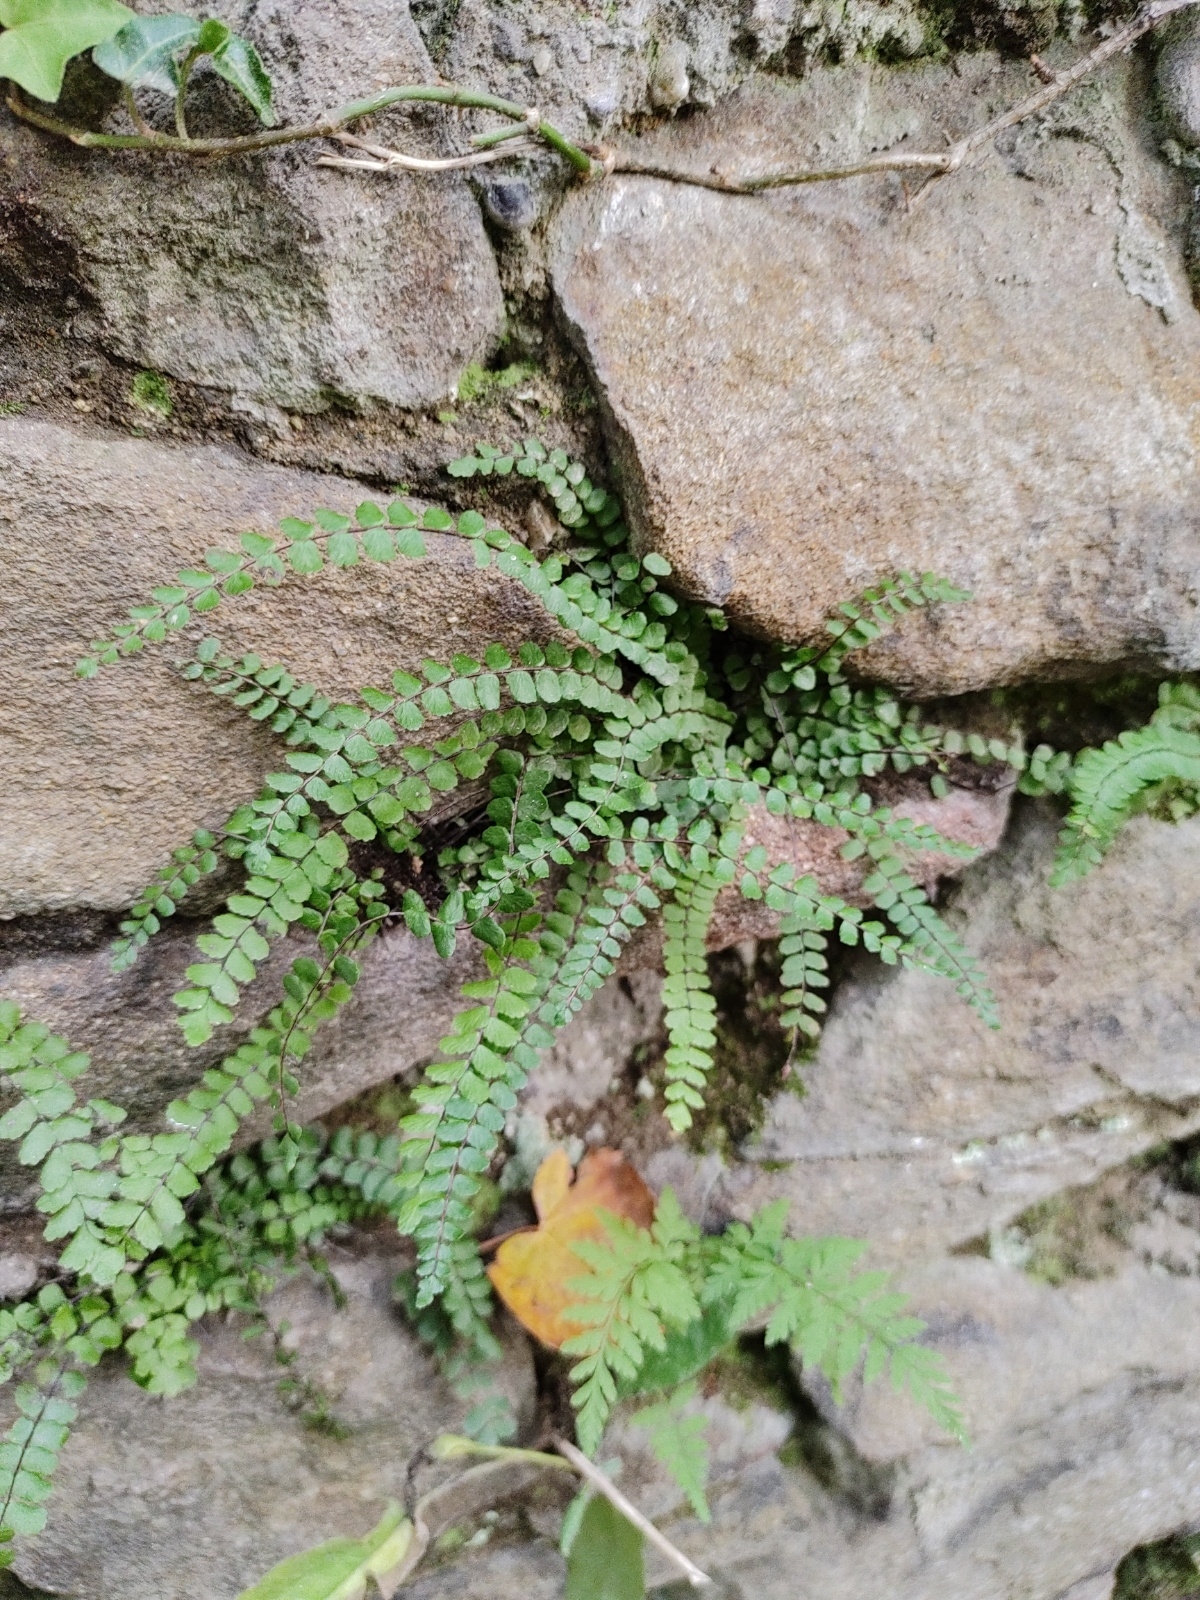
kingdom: Plantae
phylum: Tracheophyta
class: Polypodiopsida
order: Polypodiales
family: Aspleniaceae
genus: Asplenium
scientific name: Asplenium trichomanes
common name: Maidenhair spleenwort
